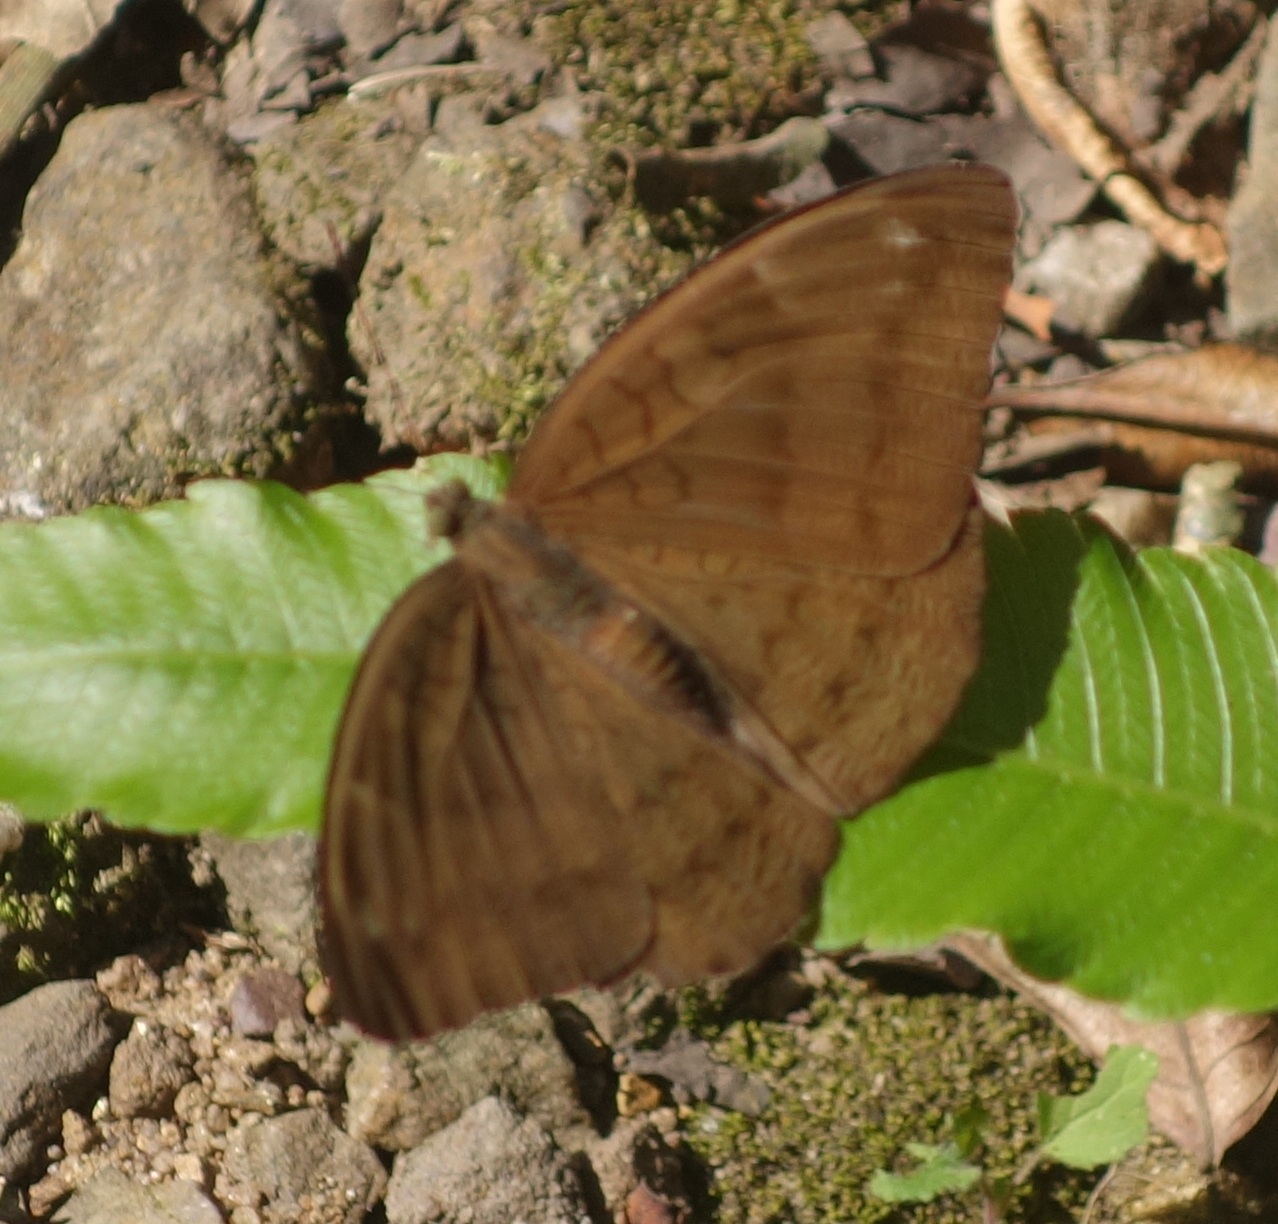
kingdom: Animalia
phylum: Arthropoda
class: Insecta
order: Lepidoptera
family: Nymphalidae
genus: Tanaecia
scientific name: Tanaecia julii
